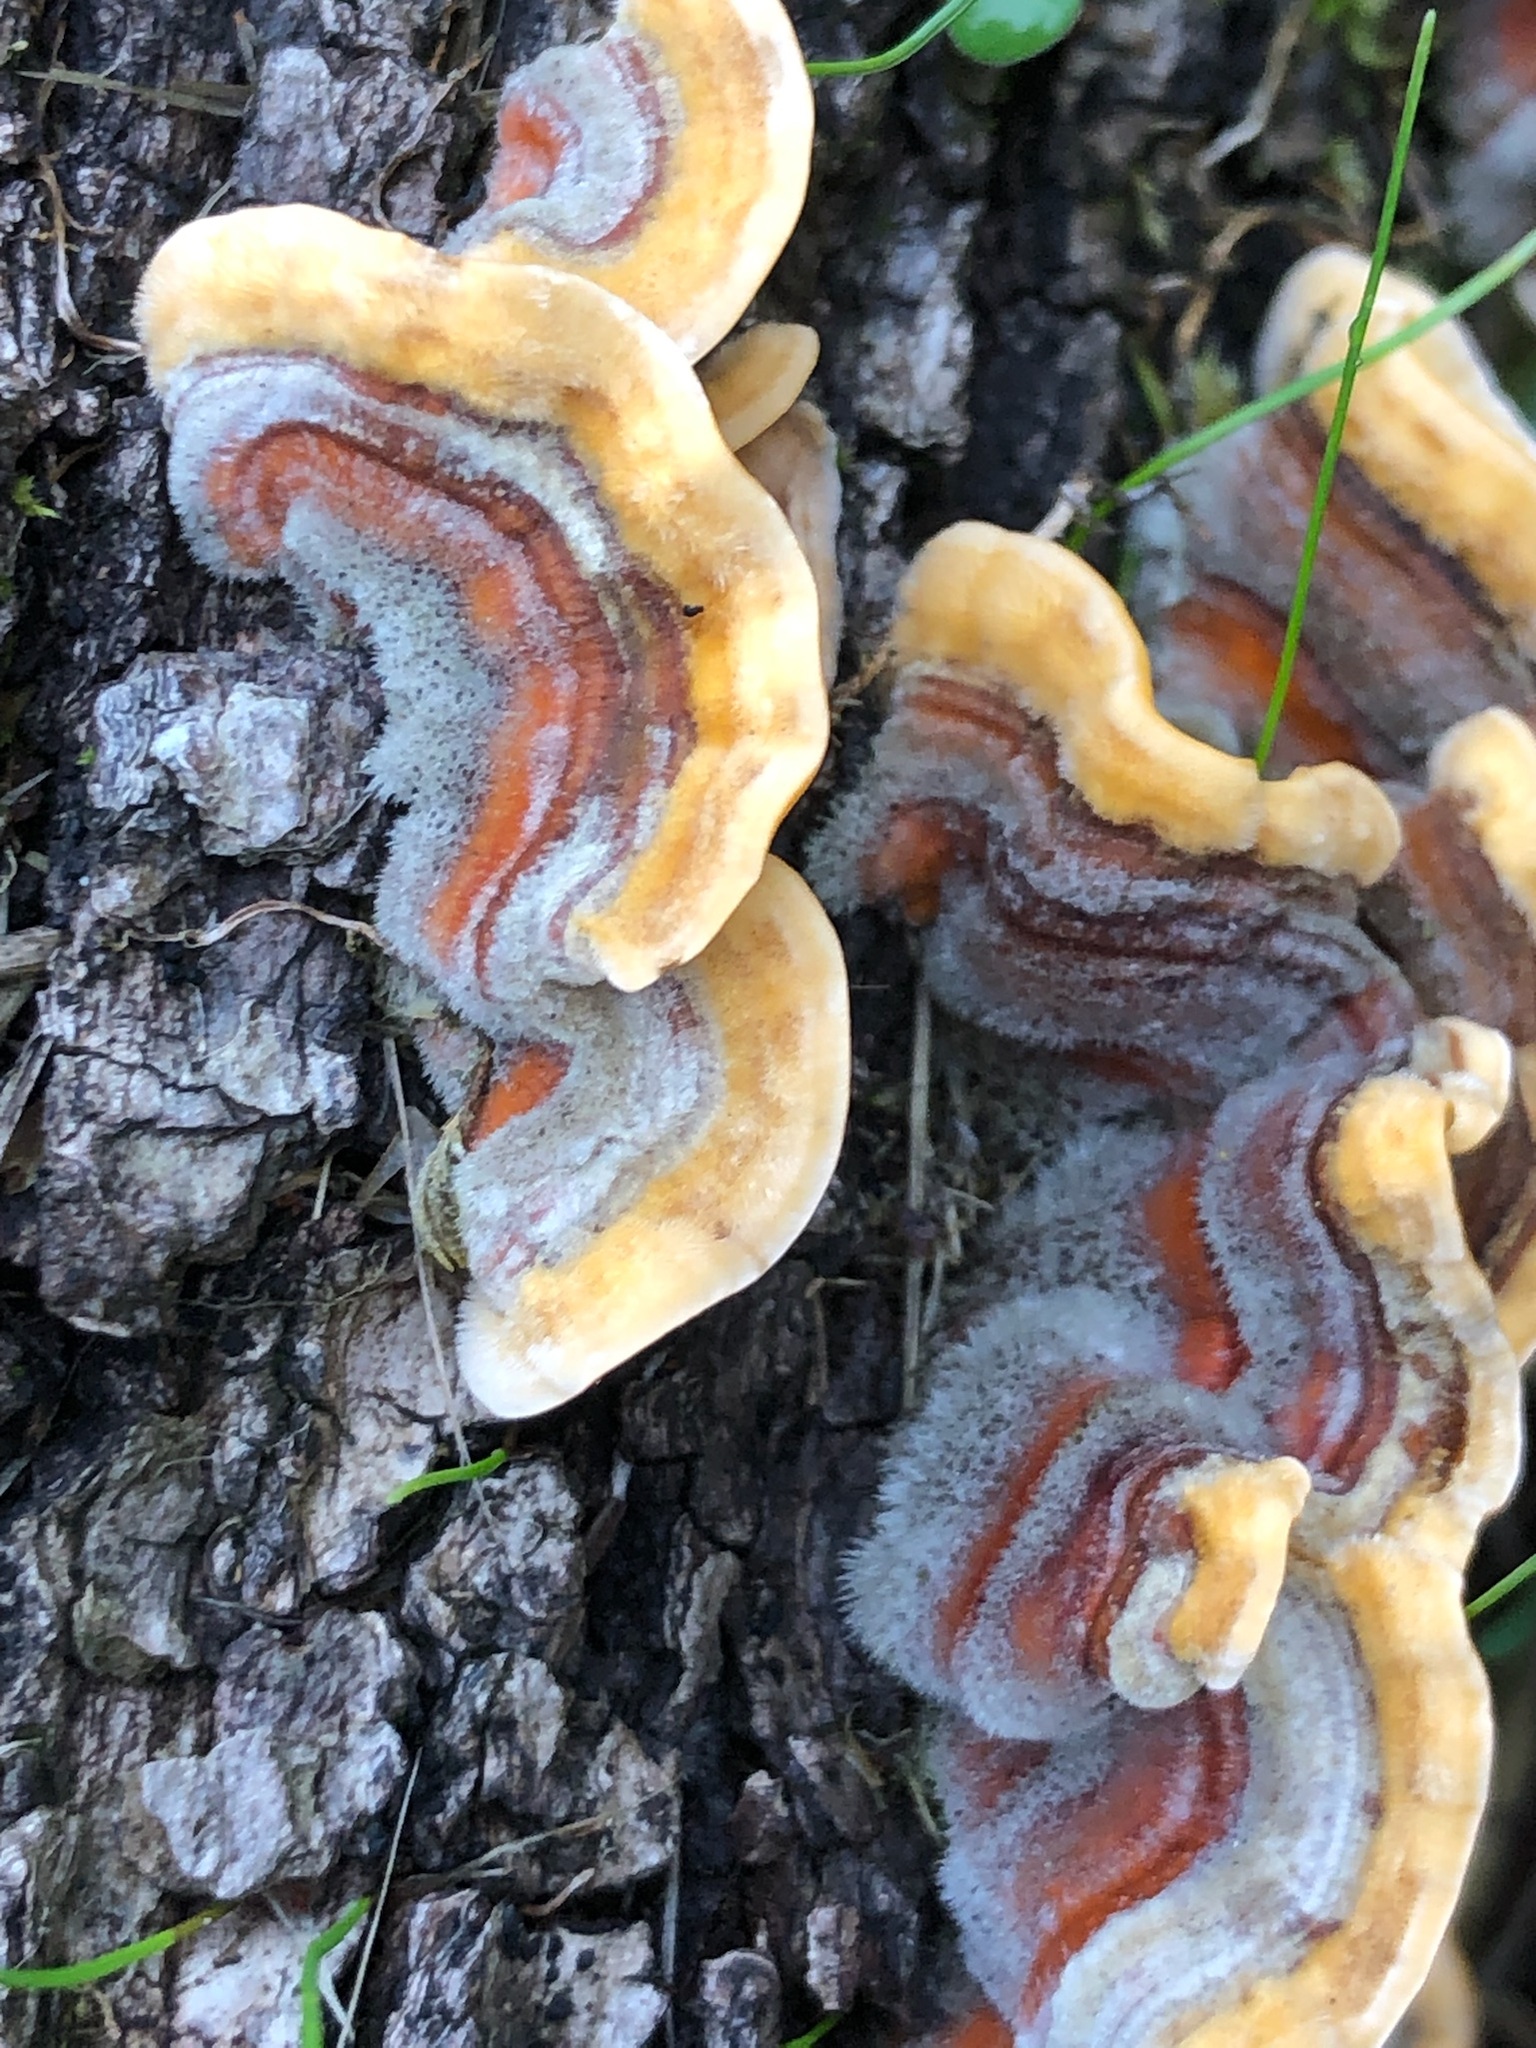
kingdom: Fungi
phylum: Basidiomycota
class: Agaricomycetes
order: Russulales
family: Stereaceae
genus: Stereum
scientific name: Stereum hirsutum
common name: Hairy curtain crust
